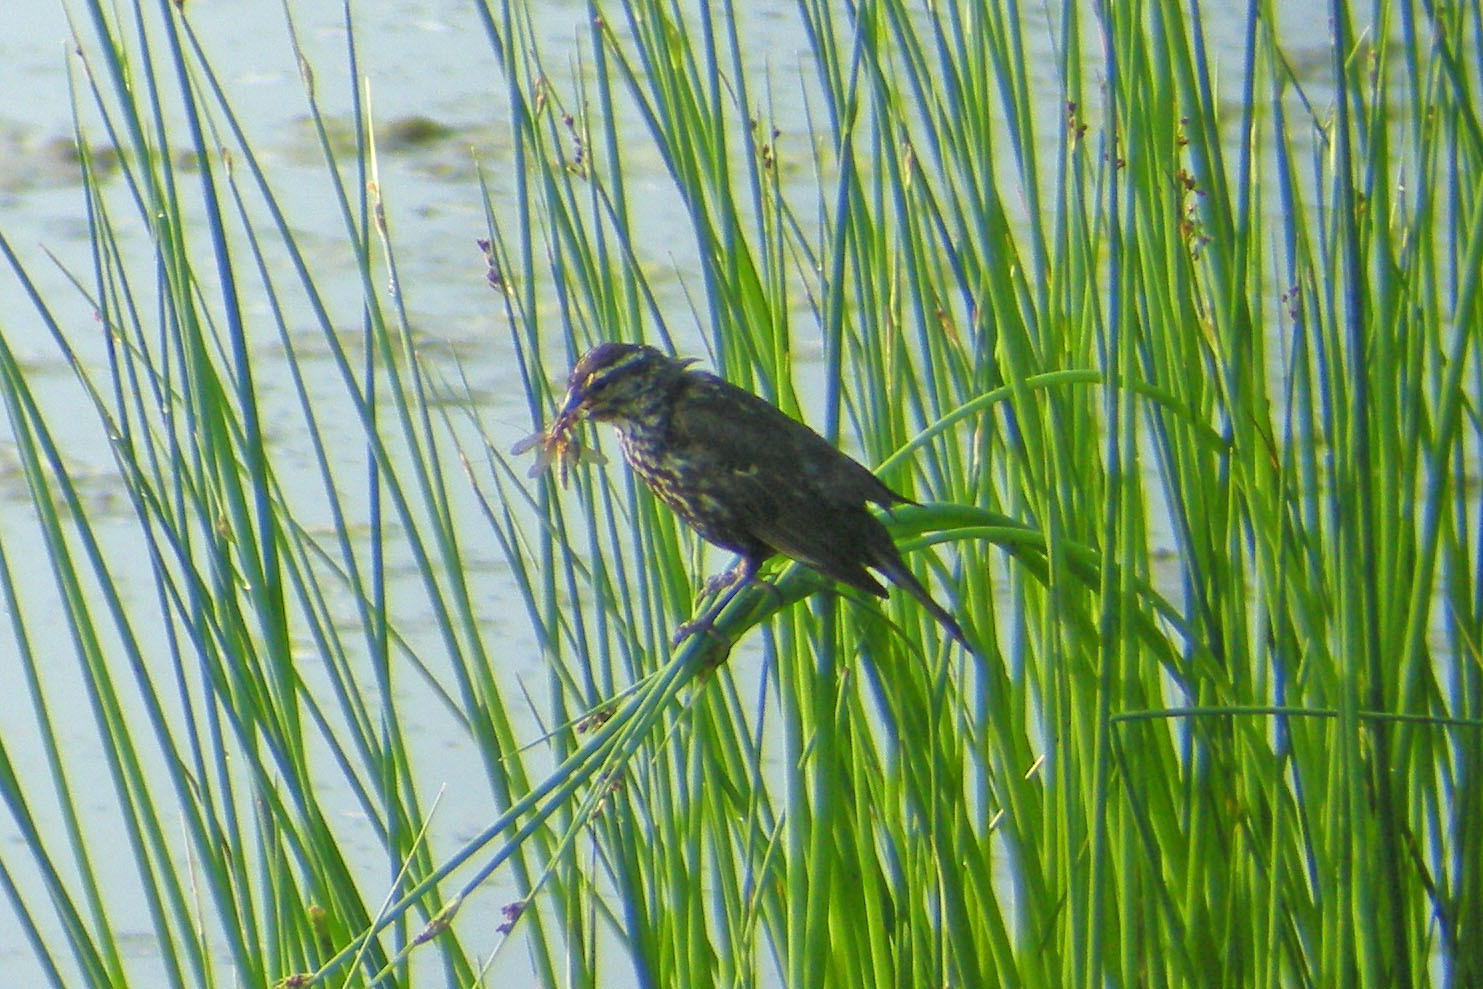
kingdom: Animalia
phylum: Chordata
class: Aves
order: Passeriformes
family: Icteridae
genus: Agelaius
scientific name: Agelaius phoeniceus
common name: Red-winged blackbird
